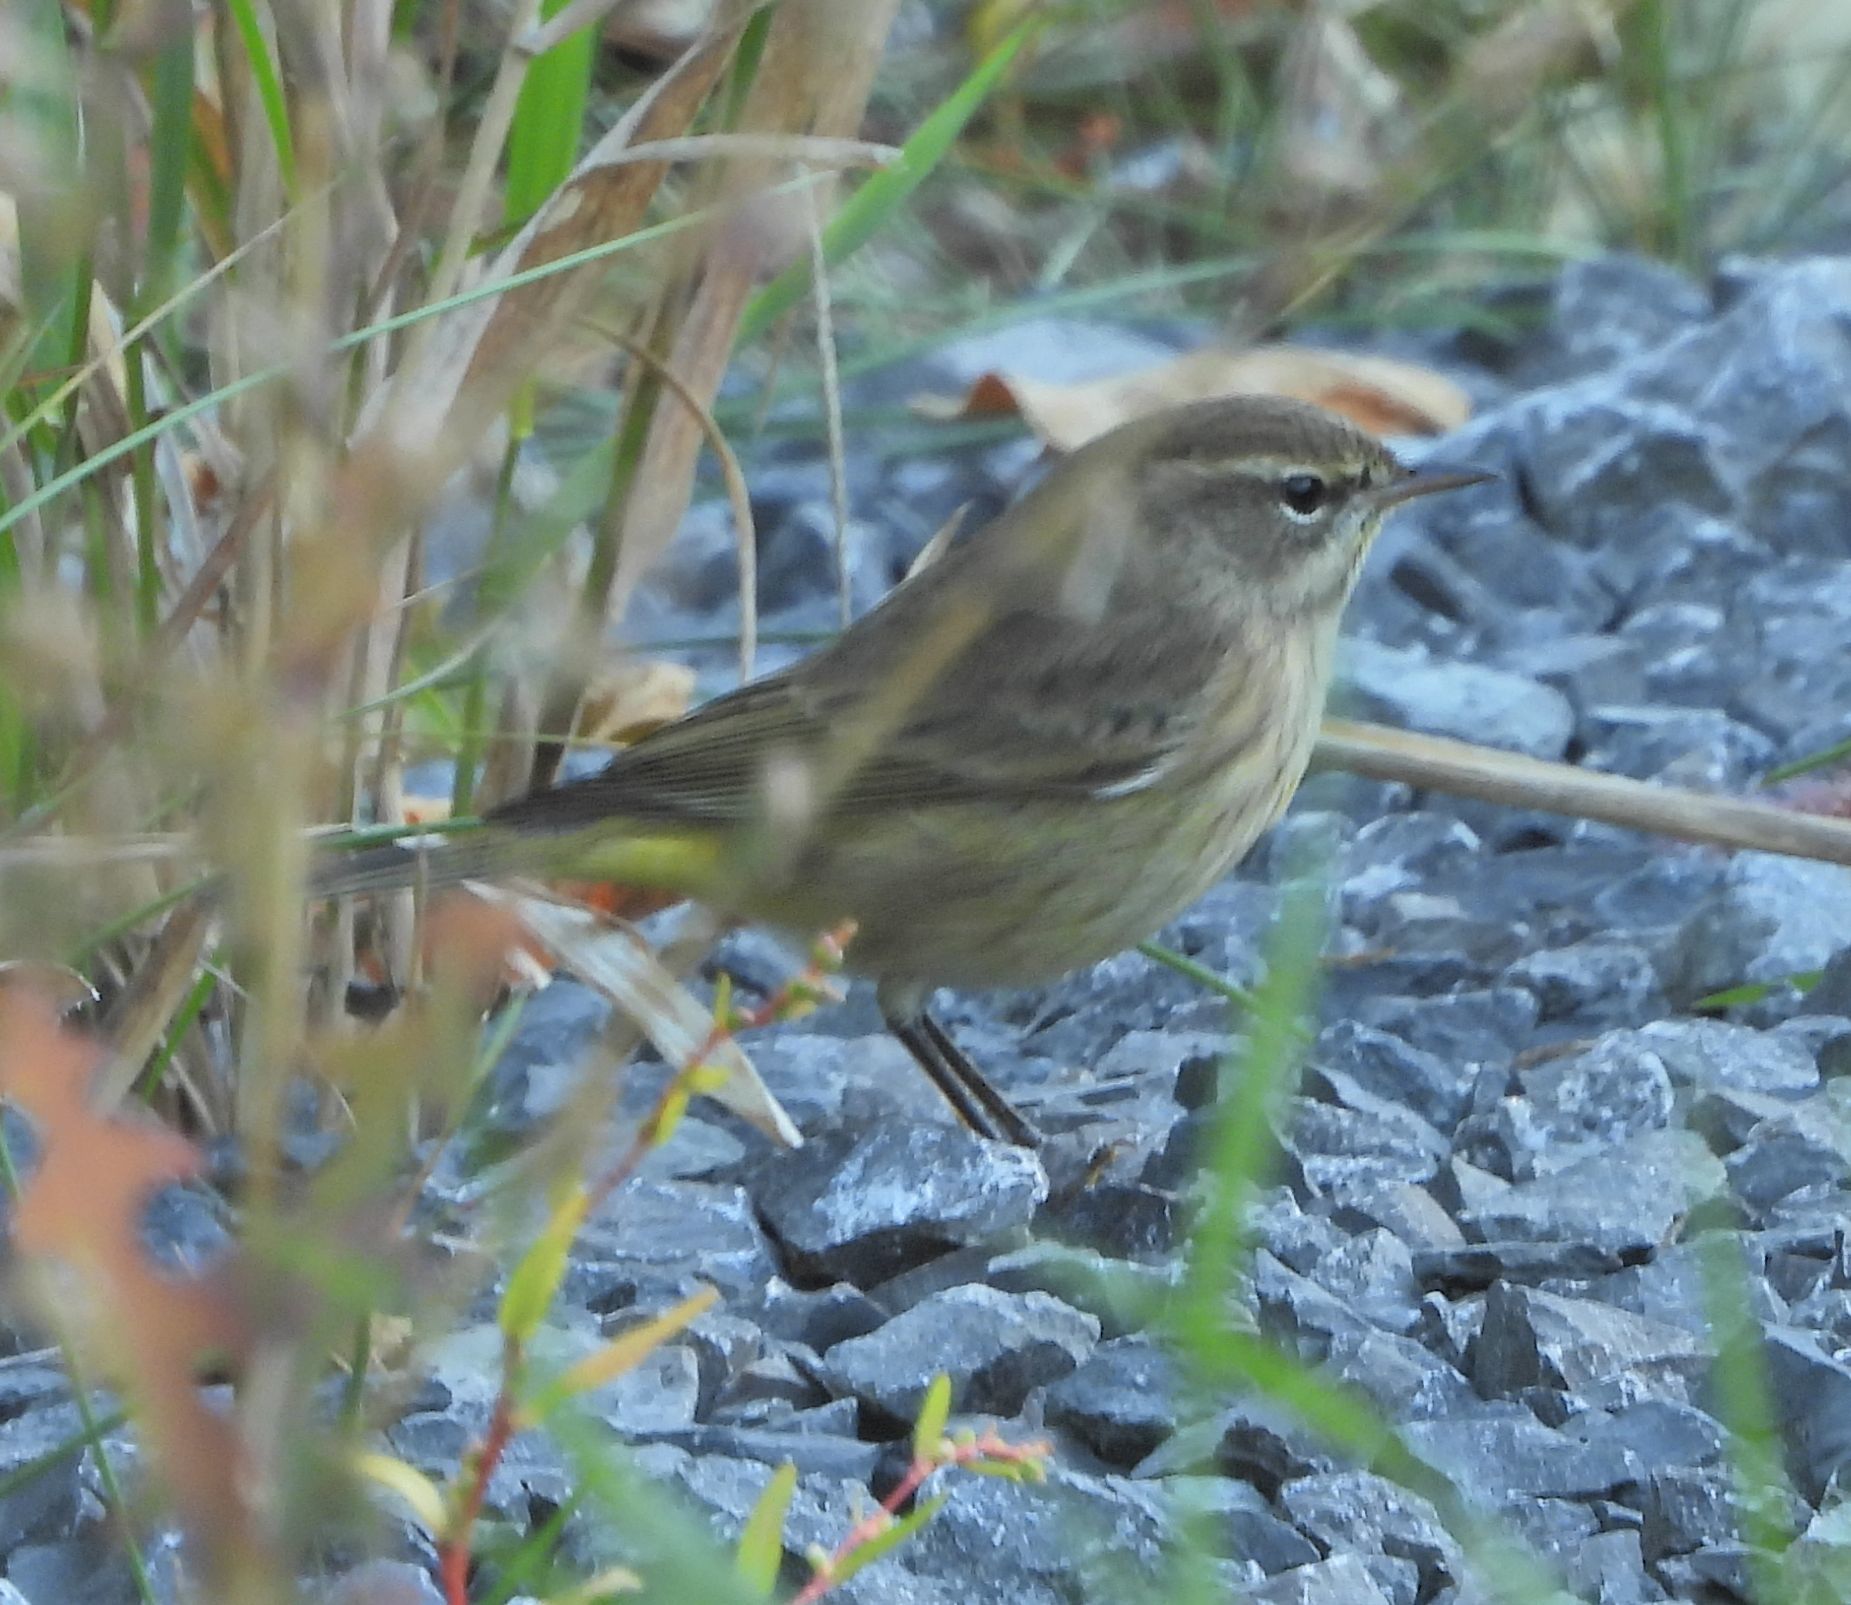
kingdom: Animalia
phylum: Chordata
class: Aves
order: Passeriformes
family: Parulidae
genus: Setophaga
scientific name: Setophaga palmarum
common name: Palm warbler
